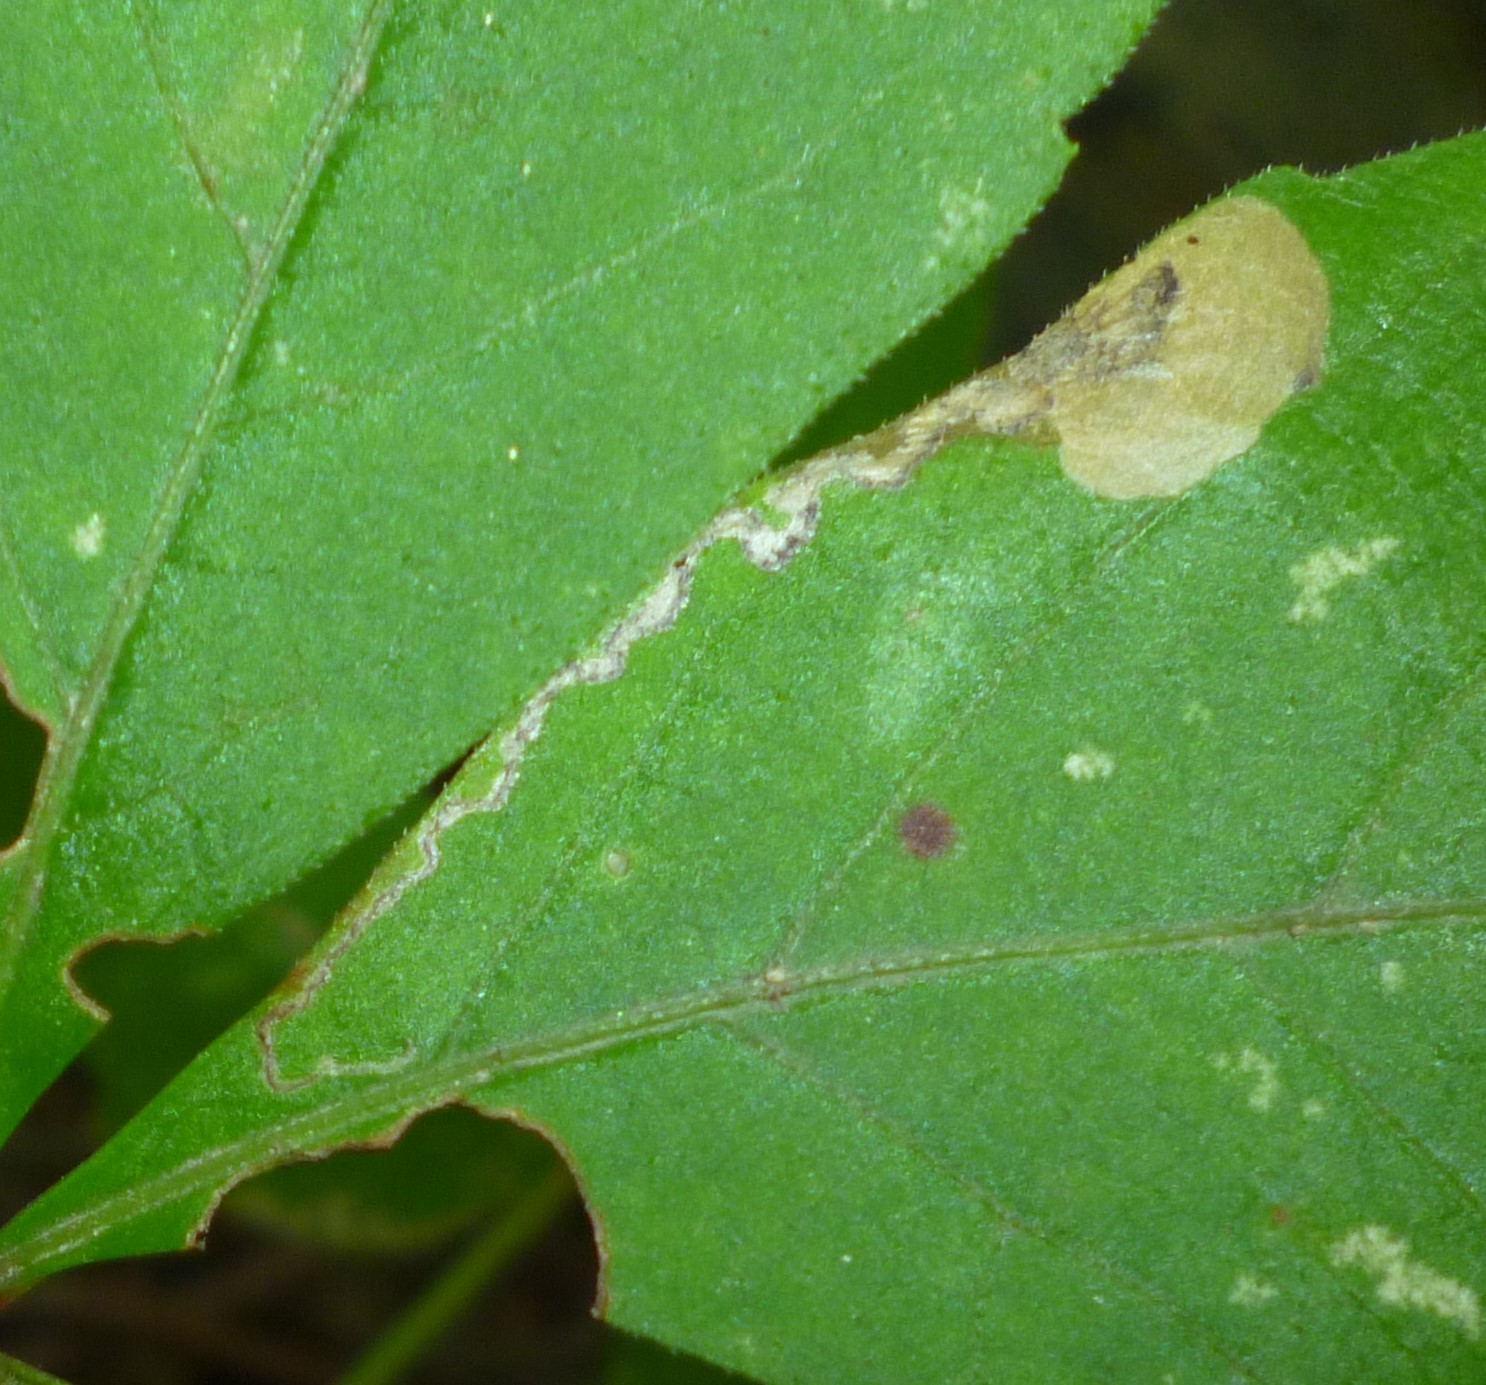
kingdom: Animalia
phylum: Arthropoda
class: Insecta
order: Lepidoptera
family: Heliozelidae
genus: Antispila
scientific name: Antispila ampelopsifoliella
